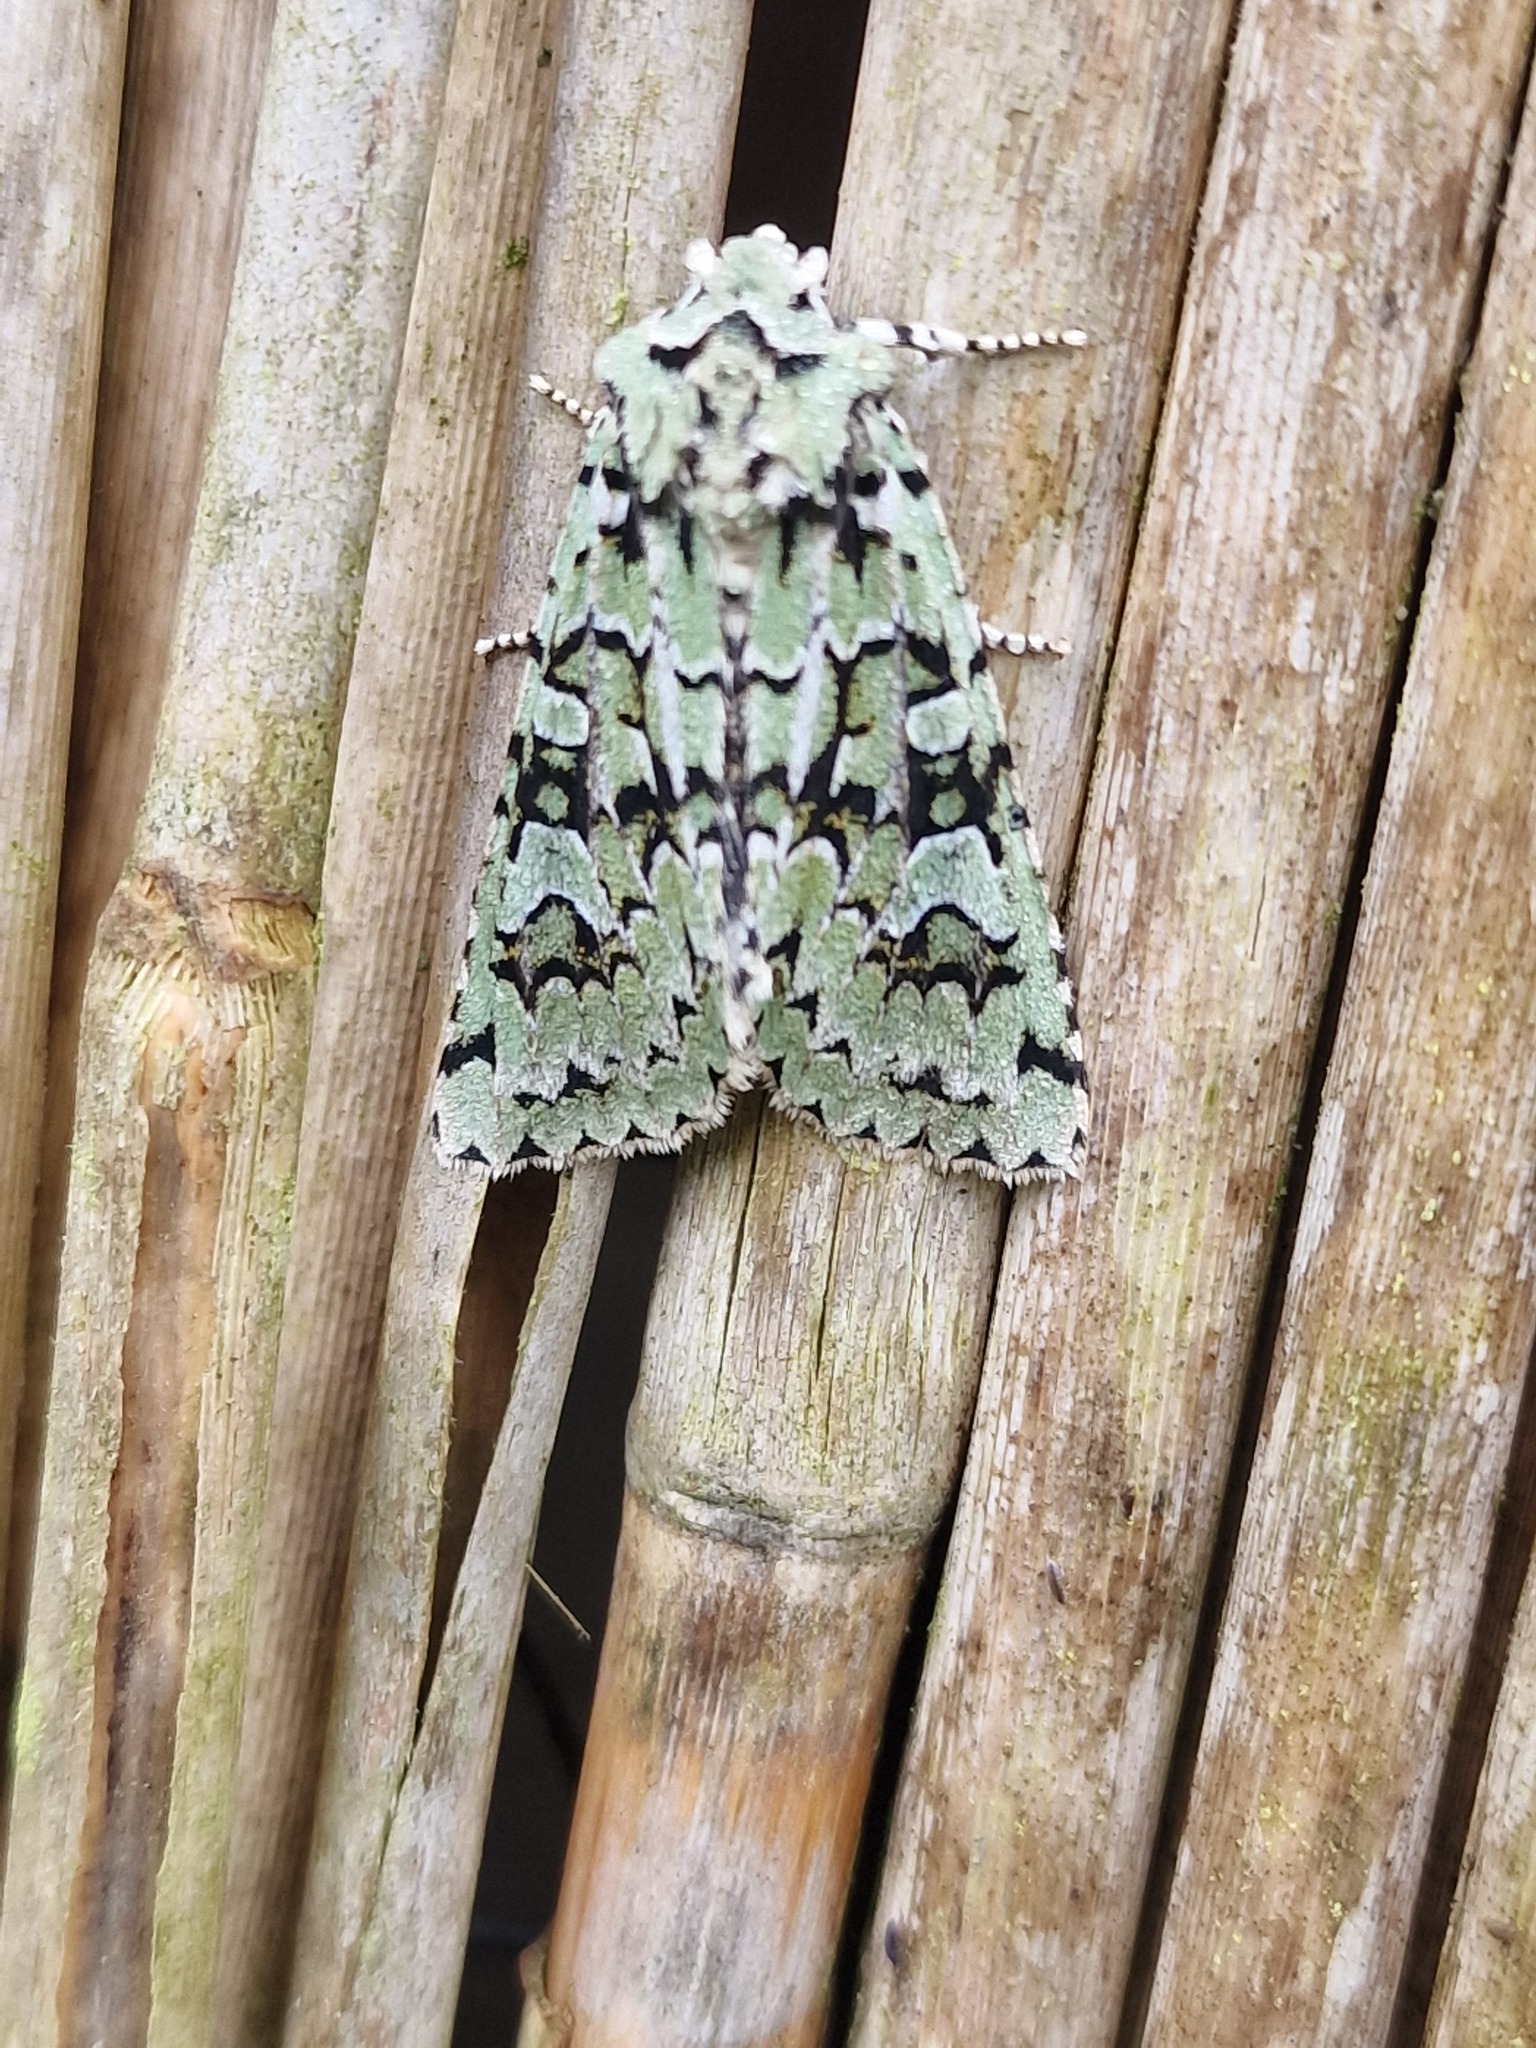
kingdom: Animalia
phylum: Arthropoda
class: Insecta
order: Lepidoptera
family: Noctuidae
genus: Griposia
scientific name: Griposia aprilina
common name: Merveille du jour
